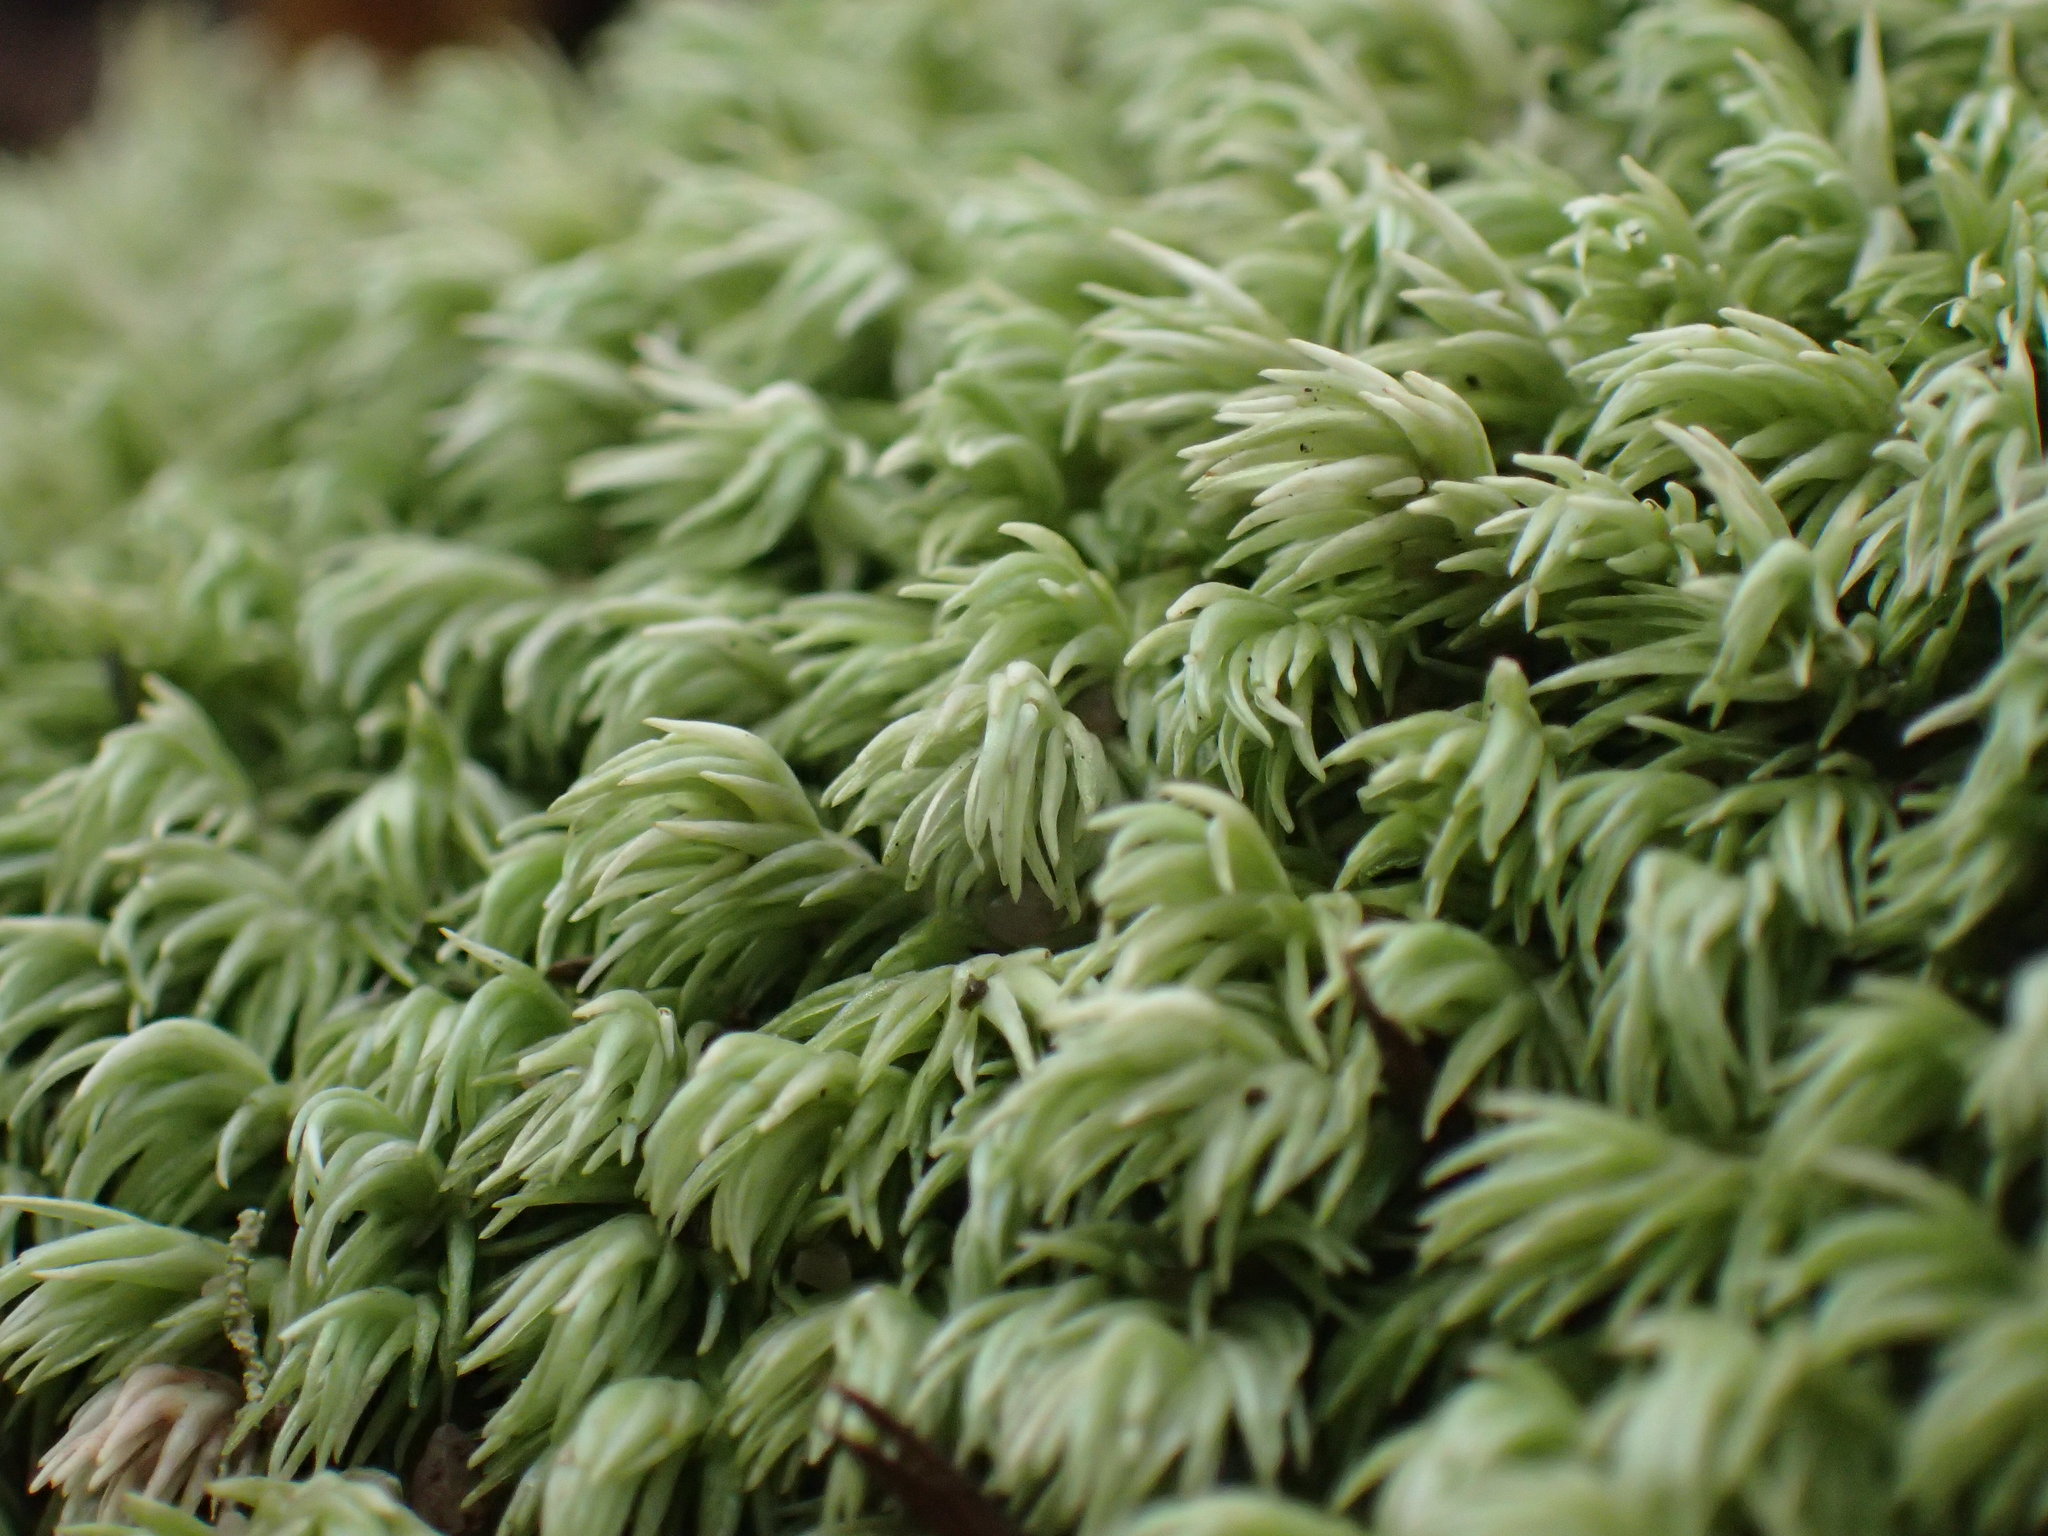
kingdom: Plantae
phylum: Bryophyta
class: Bryopsida
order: Dicranales
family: Leucobryaceae
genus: Leucobryum
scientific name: Leucobryum acutifolium
